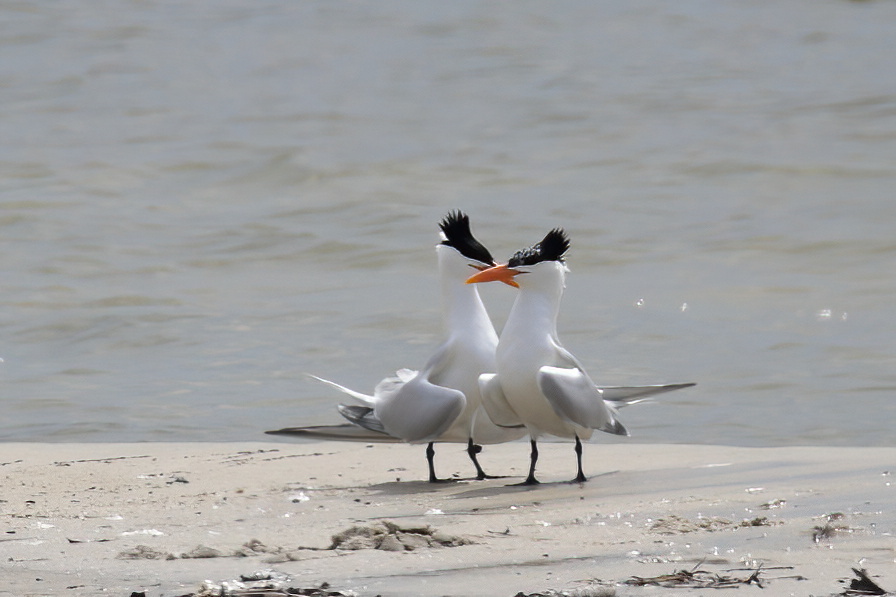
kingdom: Animalia
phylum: Chordata
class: Aves
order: Charadriiformes
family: Laridae
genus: Thalasseus
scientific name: Thalasseus maximus
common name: Royal tern
